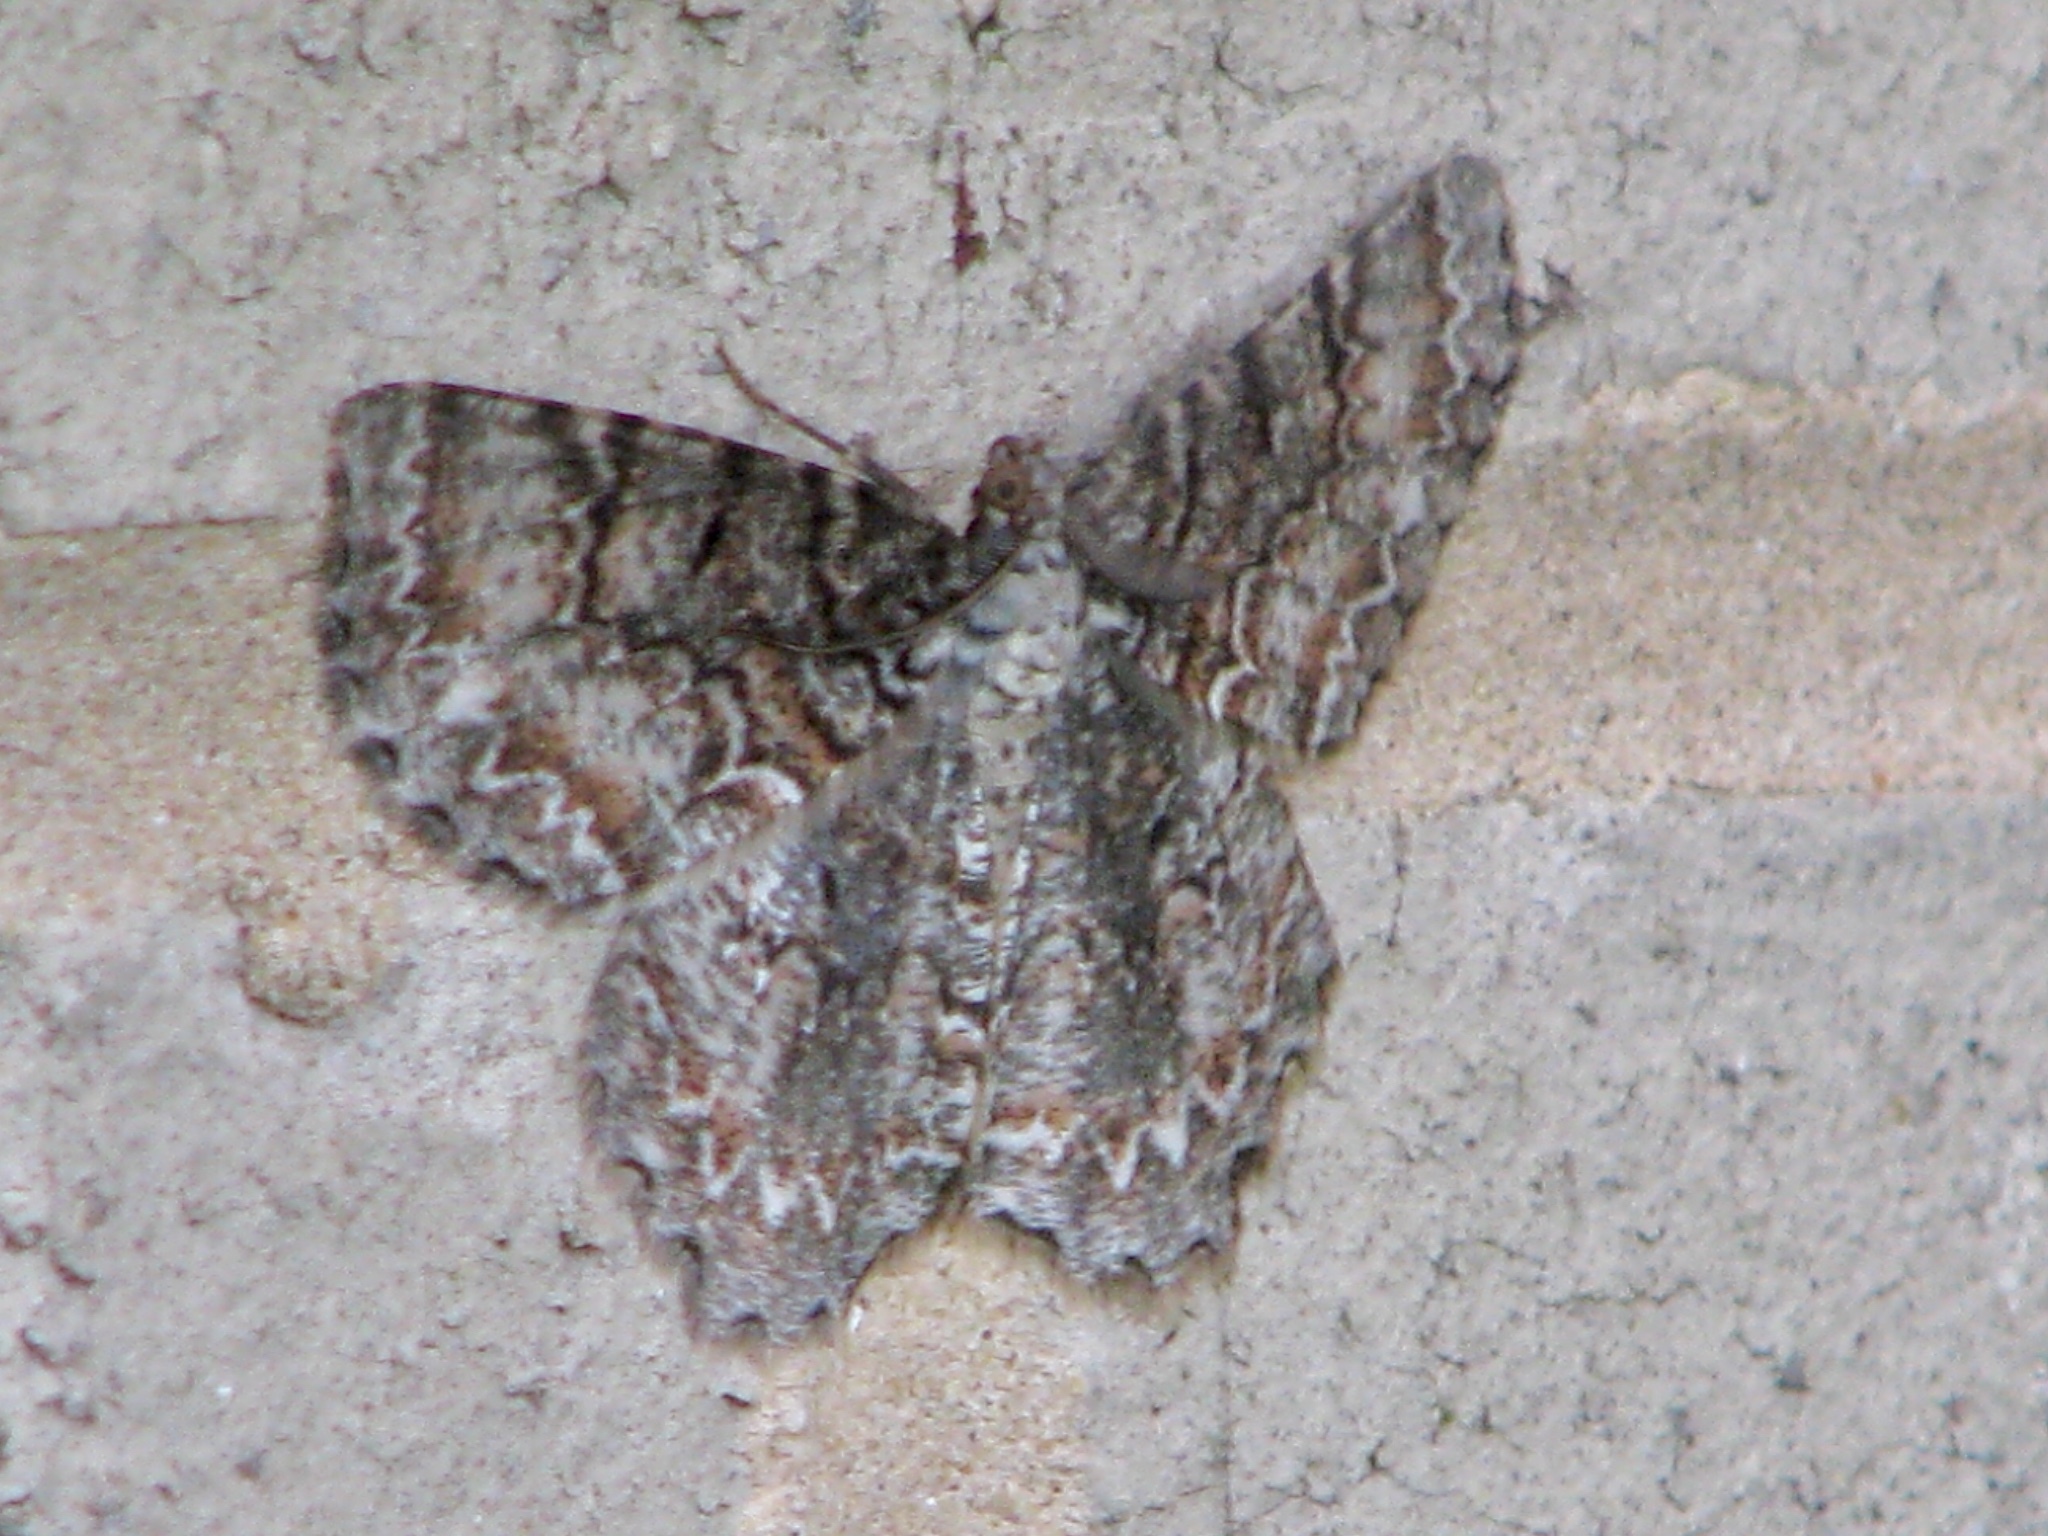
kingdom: Animalia
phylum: Arthropoda
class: Insecta
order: Lepidoptera
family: Geometridae
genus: Epimecis
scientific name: Epimecis hortaria
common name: Tulip-tree beauty
